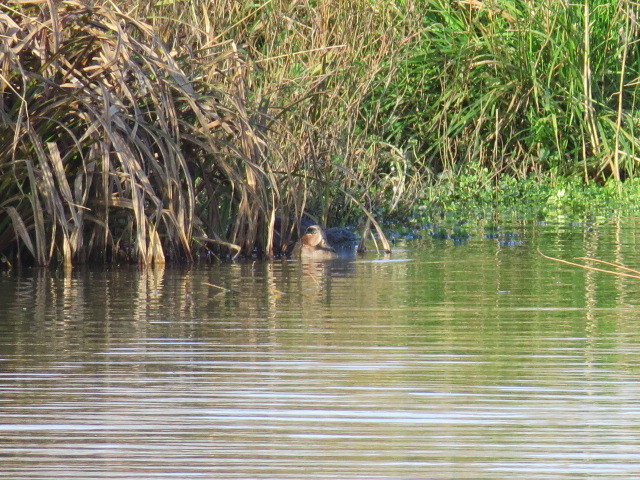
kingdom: Animalia
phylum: Chordata
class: Aves
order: Anseriformes
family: Anatidae
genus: Anas
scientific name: Anas crecca
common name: Eurasian teal
